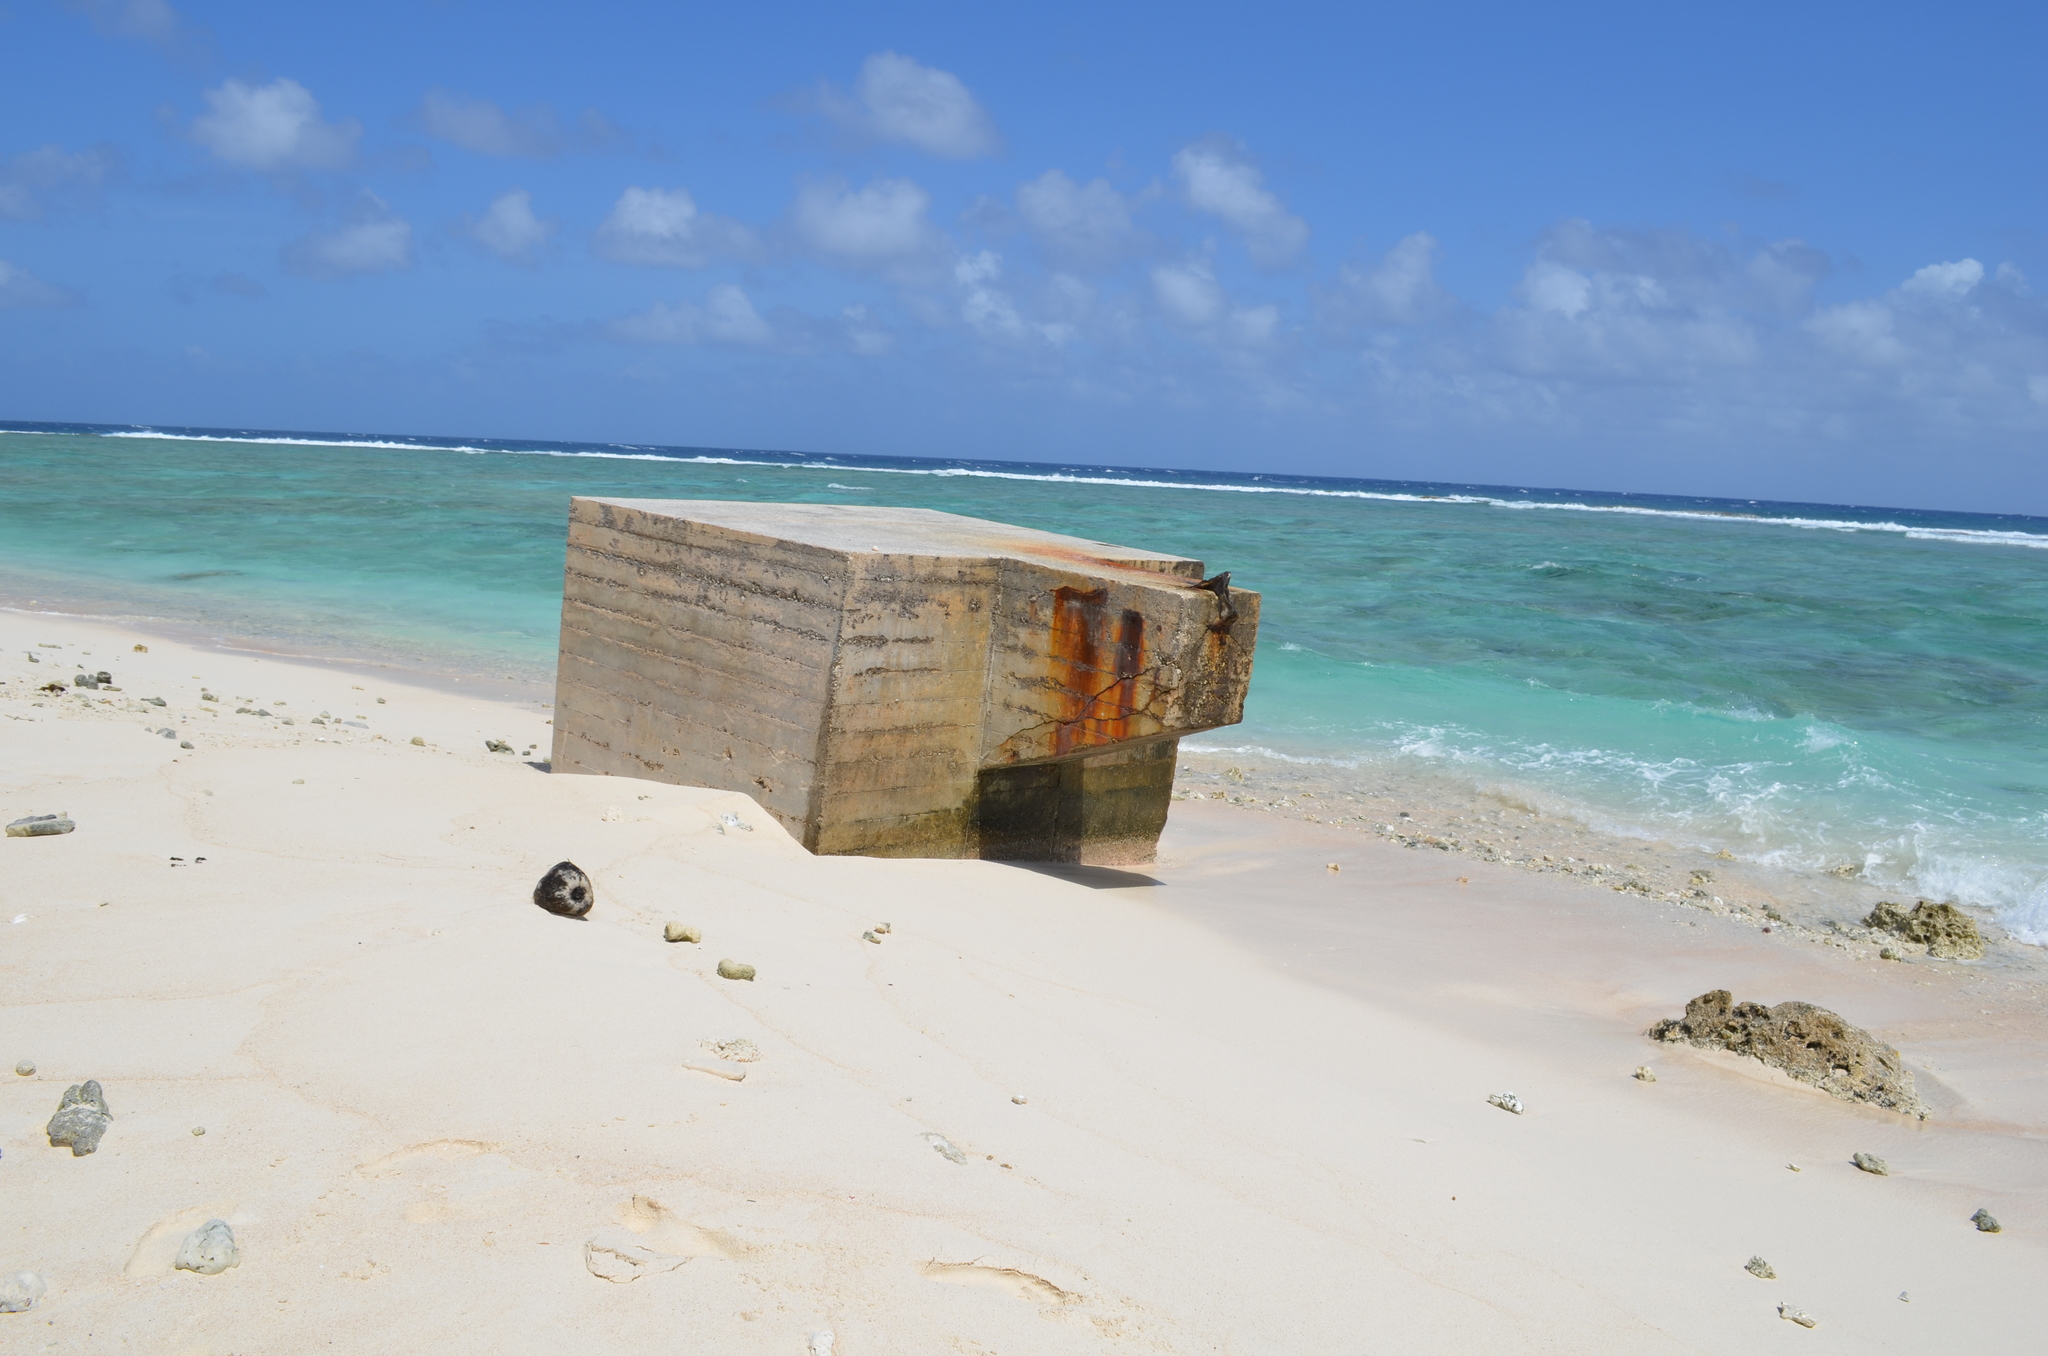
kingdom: Plantae
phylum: Tracheophyta
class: Liliopsida
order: Arecales
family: Arecaceae
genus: Cocos
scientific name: Cocos nucifera
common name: Coconut palm
